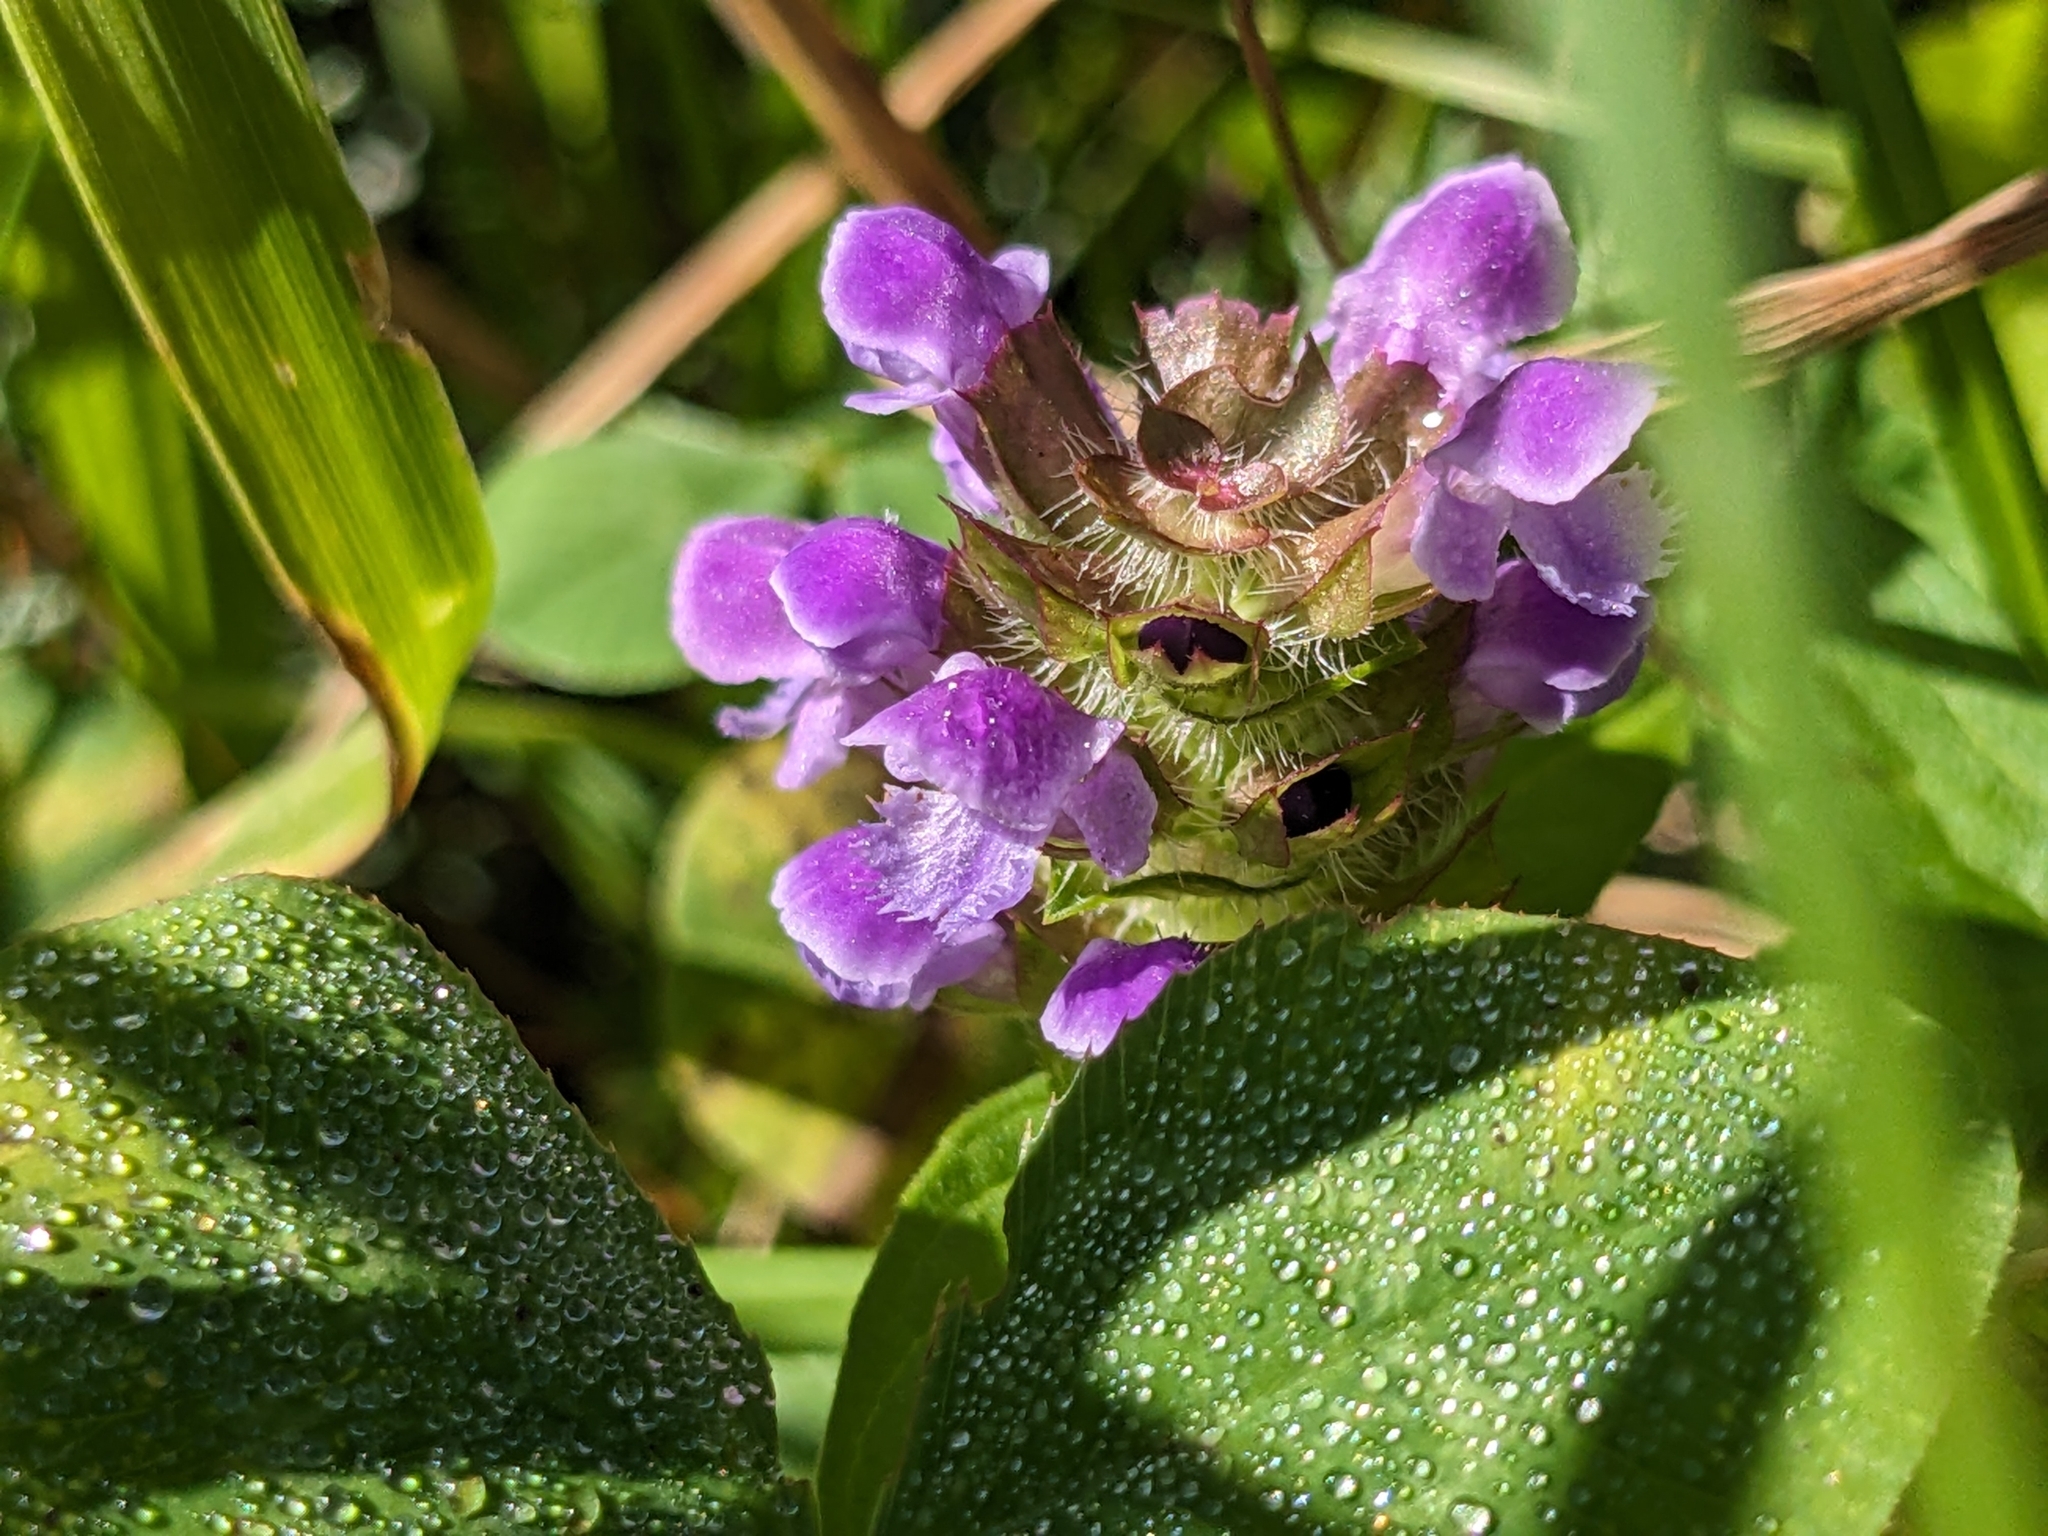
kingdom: Plantae
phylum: Tracheophyta
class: Magnoliopsida
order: Lamiales
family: Lamiaceae
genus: Prunella
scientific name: Prunella vulgaris
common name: Heal-all
